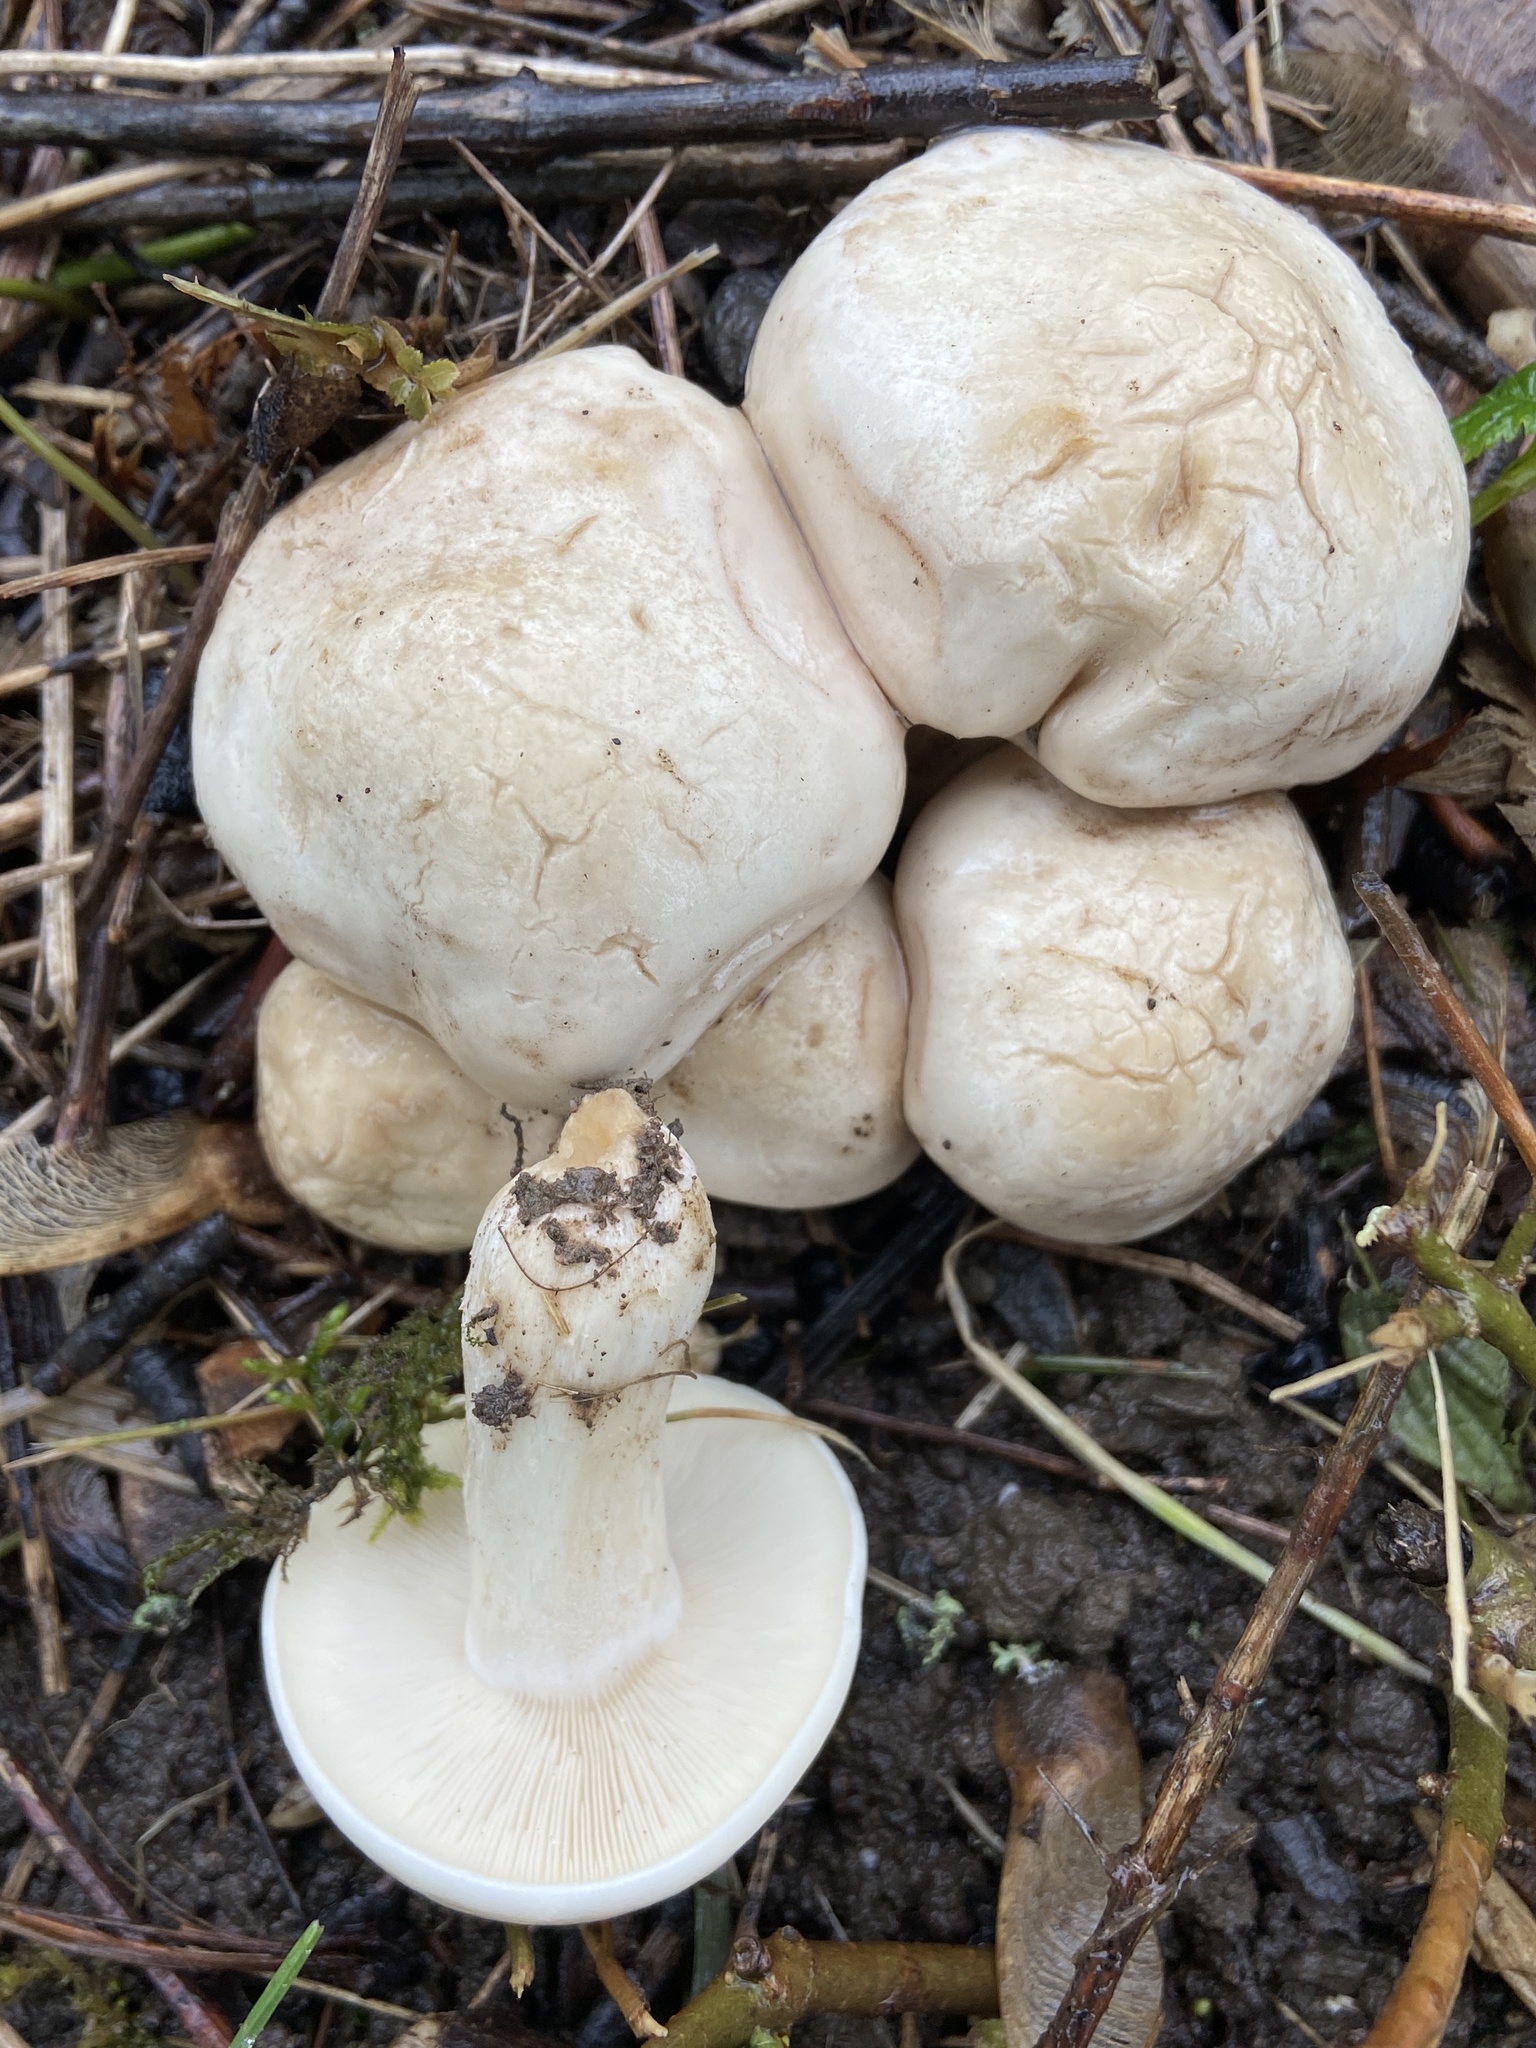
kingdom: Fungi
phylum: Basidiomycota
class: Agaricomycetes
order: Agaricales
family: Lyophyllaceae
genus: Calocybe
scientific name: Calocybe gambosa
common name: St. george's mushroom
